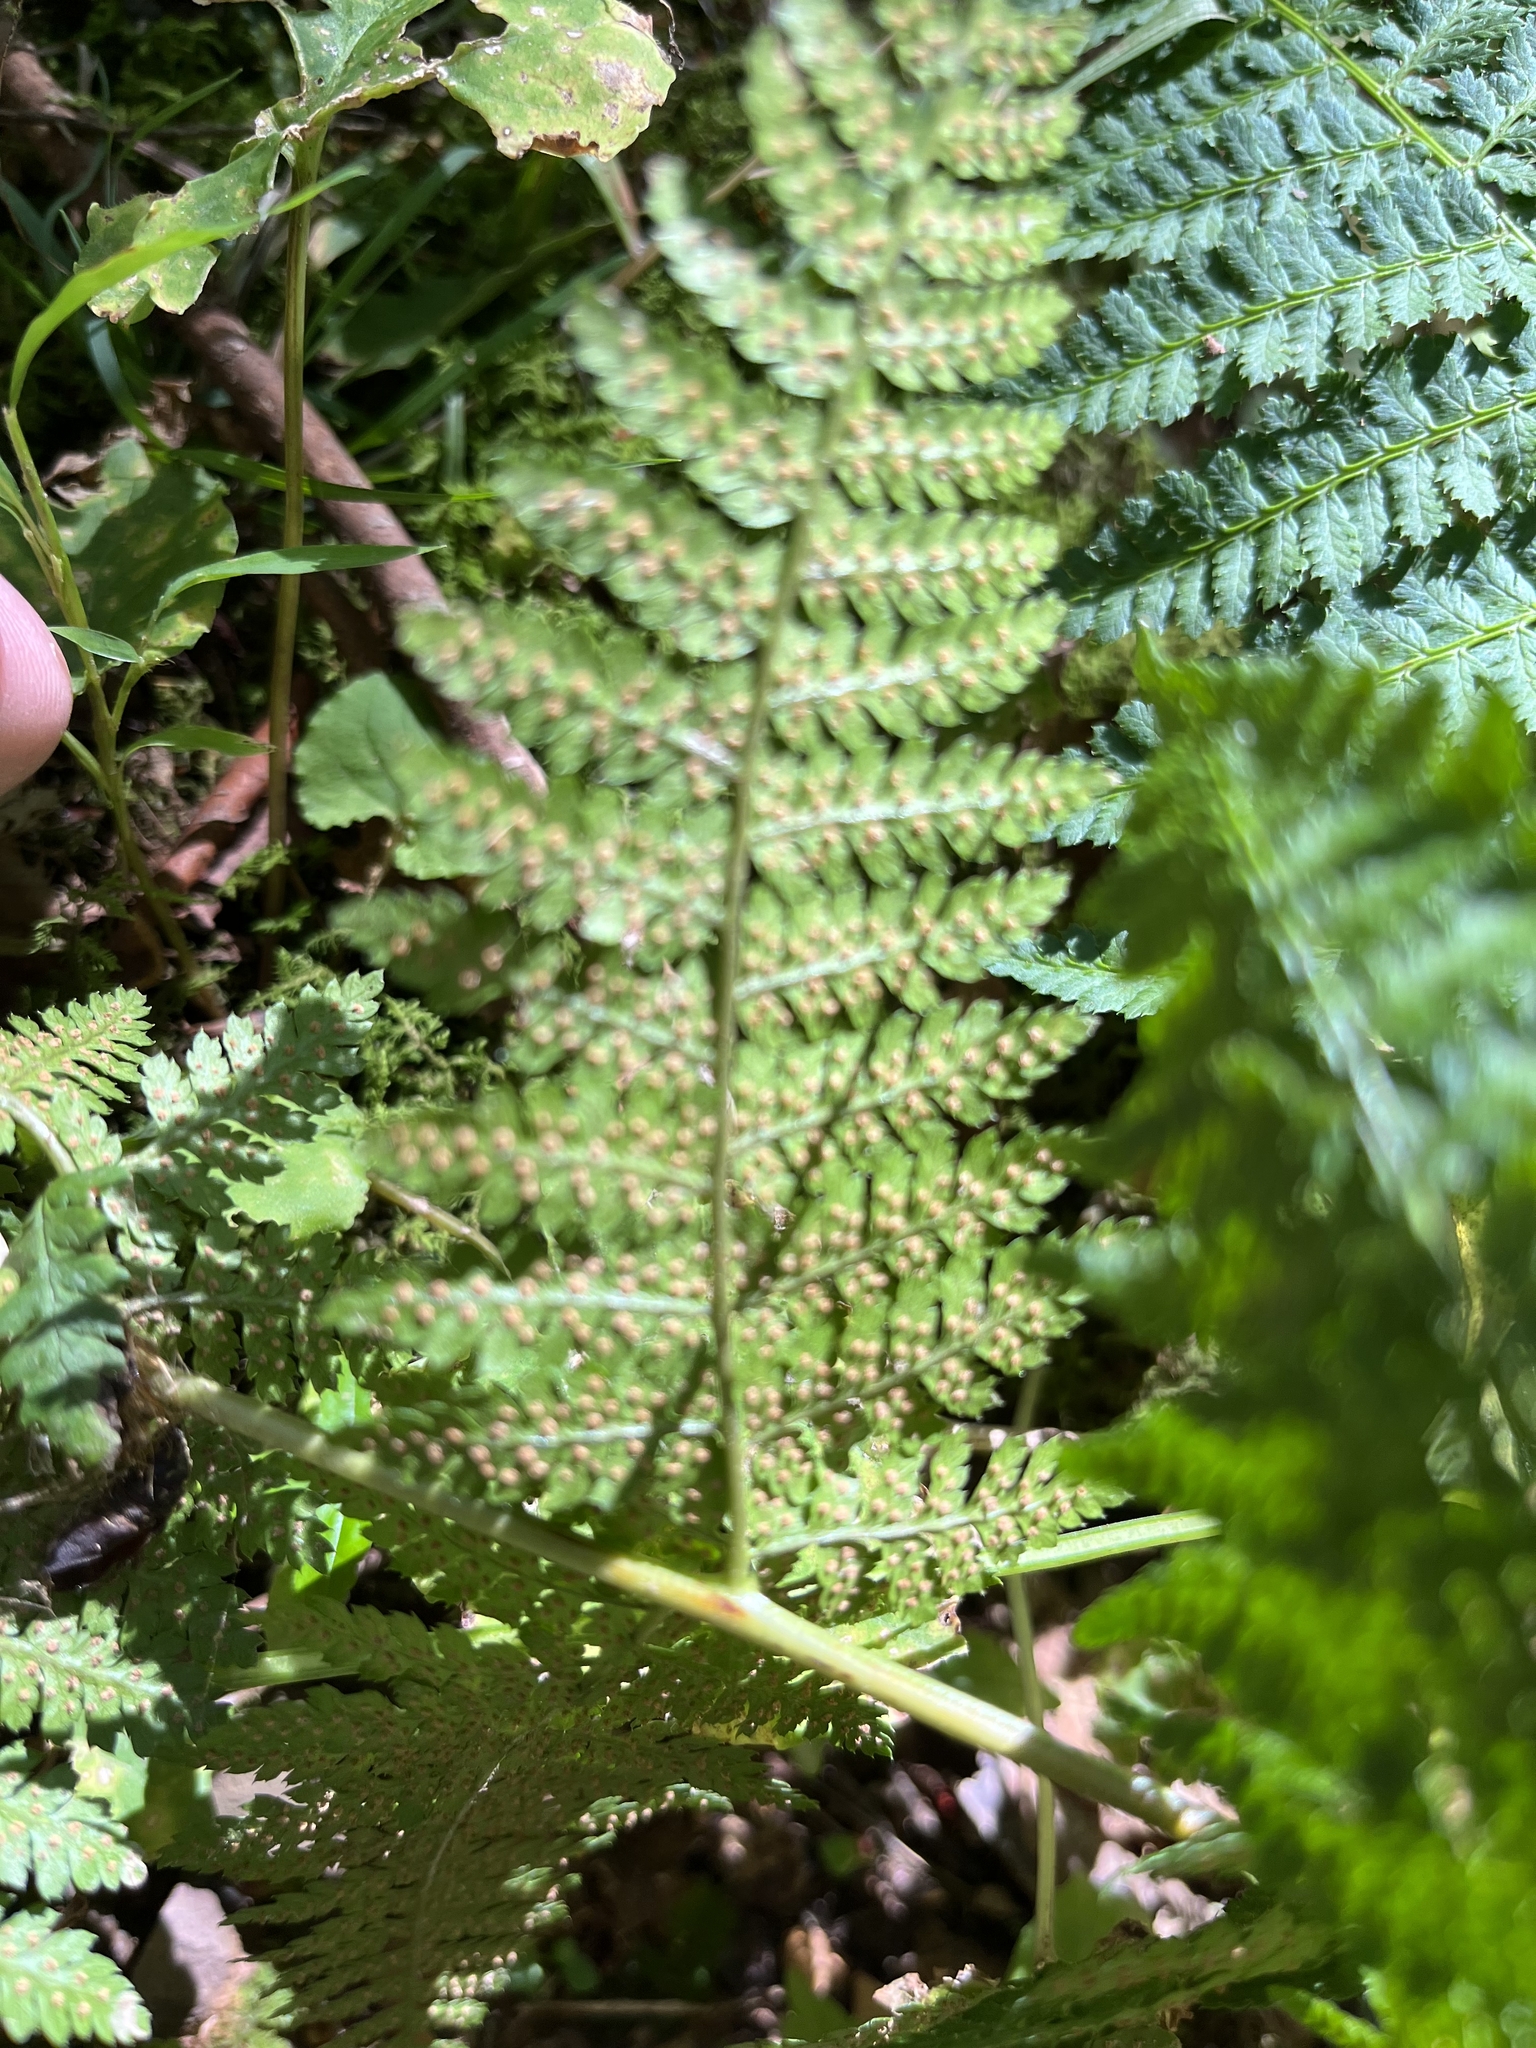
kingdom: Plantae
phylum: Tracheophyta
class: Polypodiopsida
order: Polypodiales
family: Dryopteridaceae
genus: Dryopteris
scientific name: Dryopteris intermedia
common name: Evergreen wood fern
